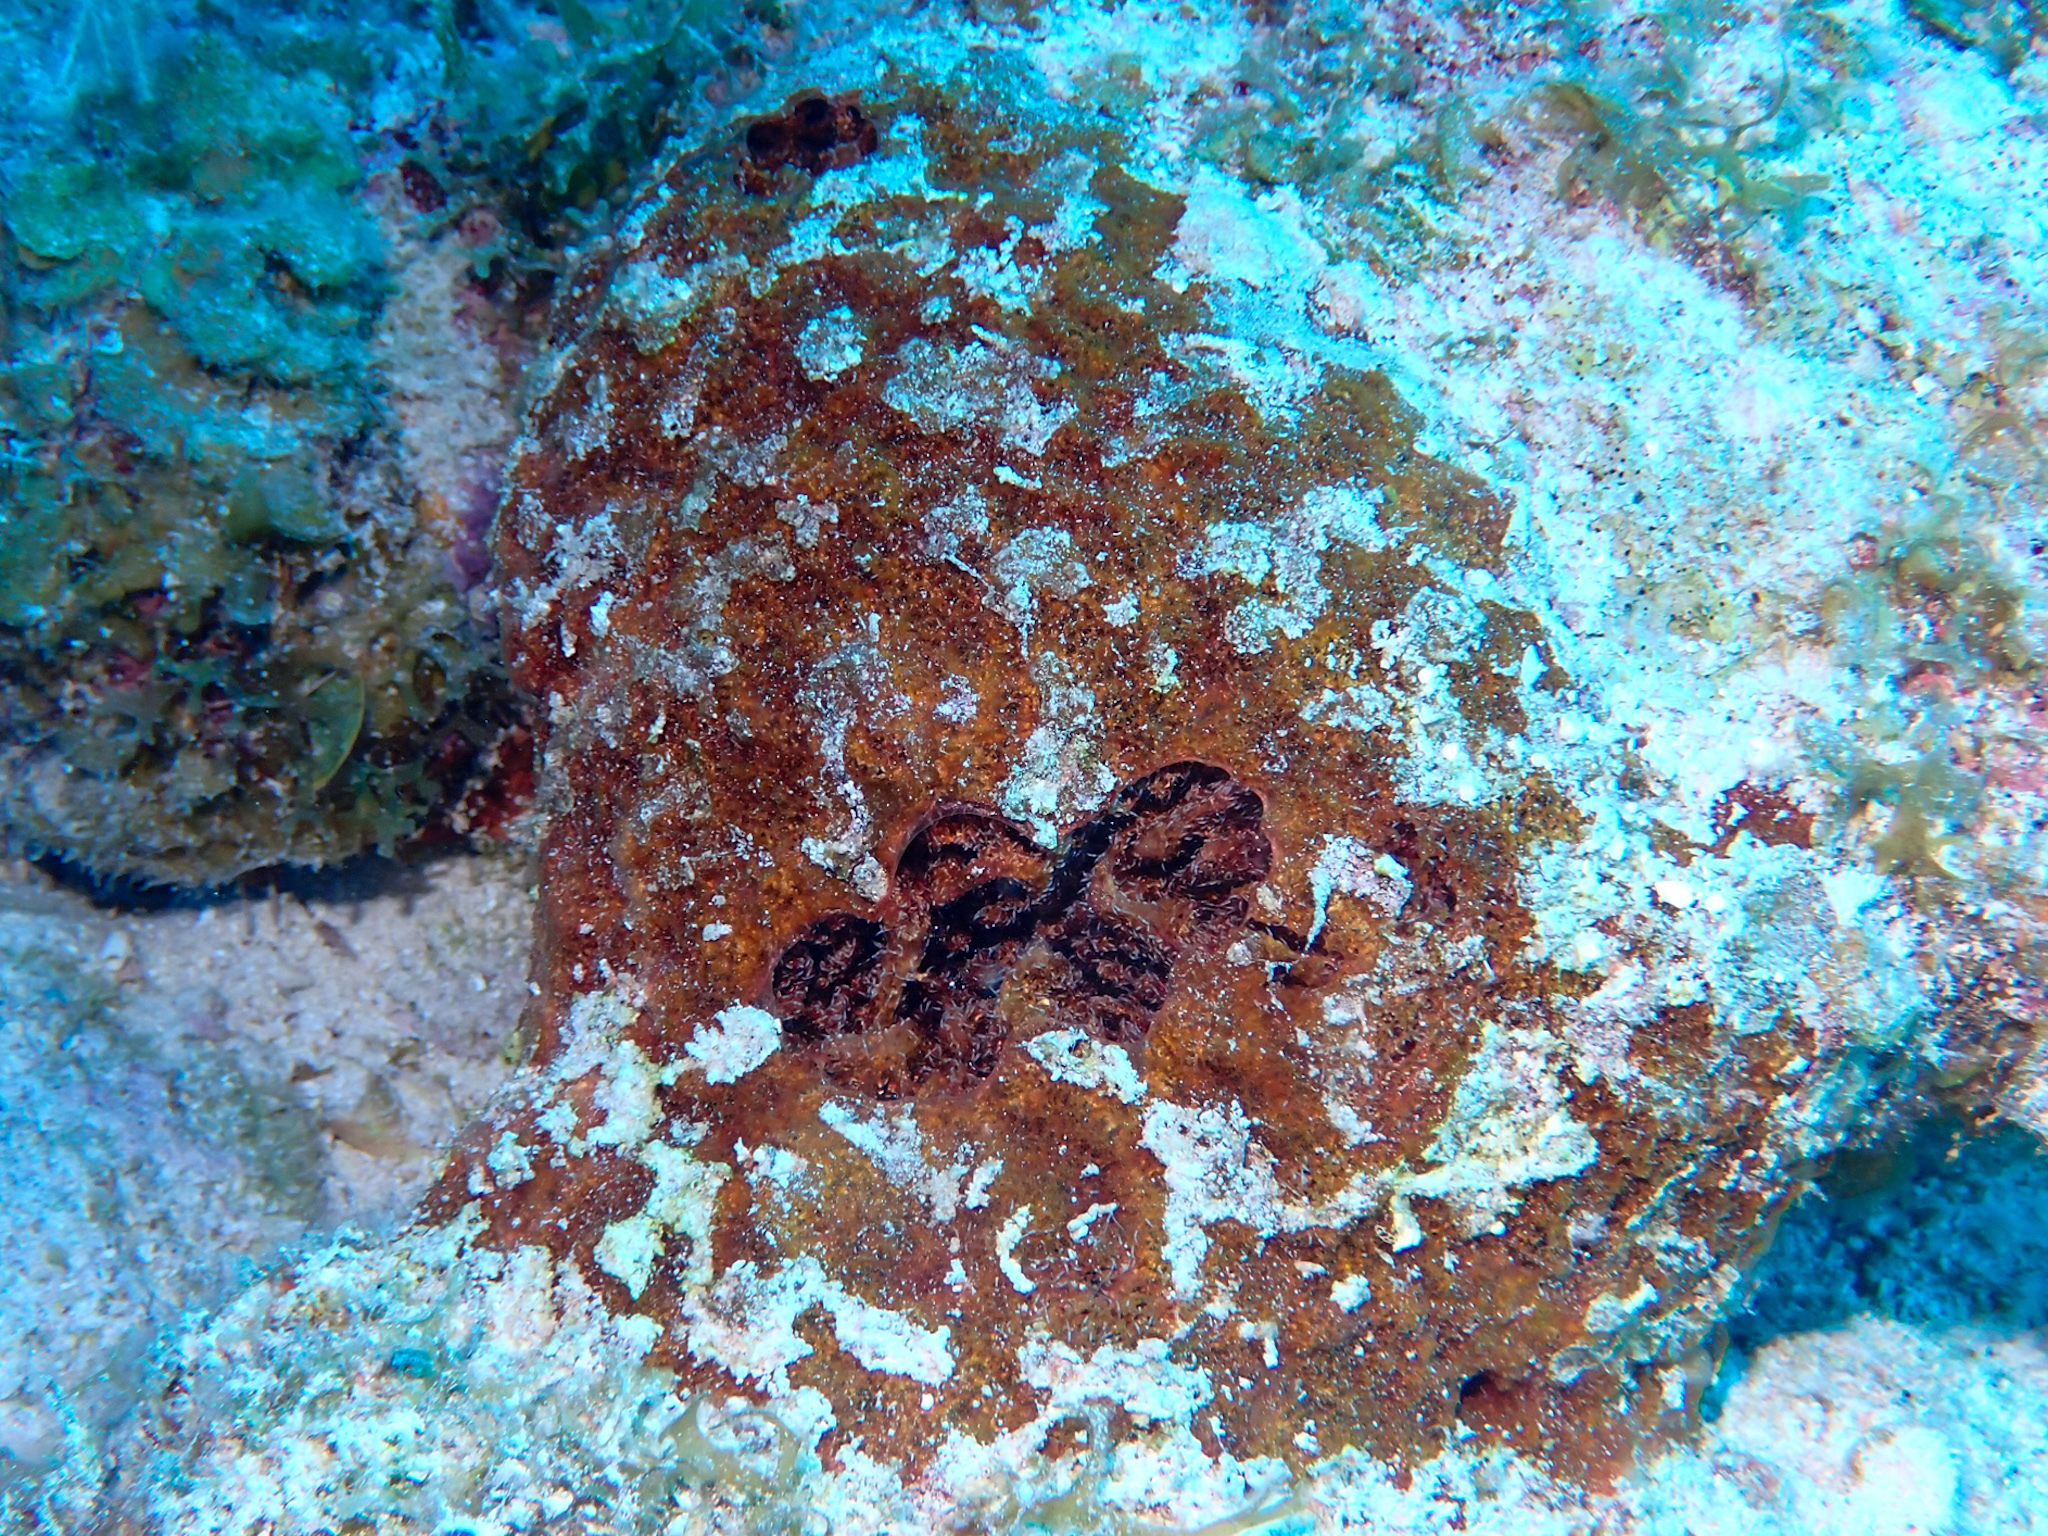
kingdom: Animalia
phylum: Porifera
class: Demospongiae
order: Biemnida
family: Biemnidae
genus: Neofibularia
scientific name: Neofibularia nolitangere
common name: Do-not-touch-me sponge
